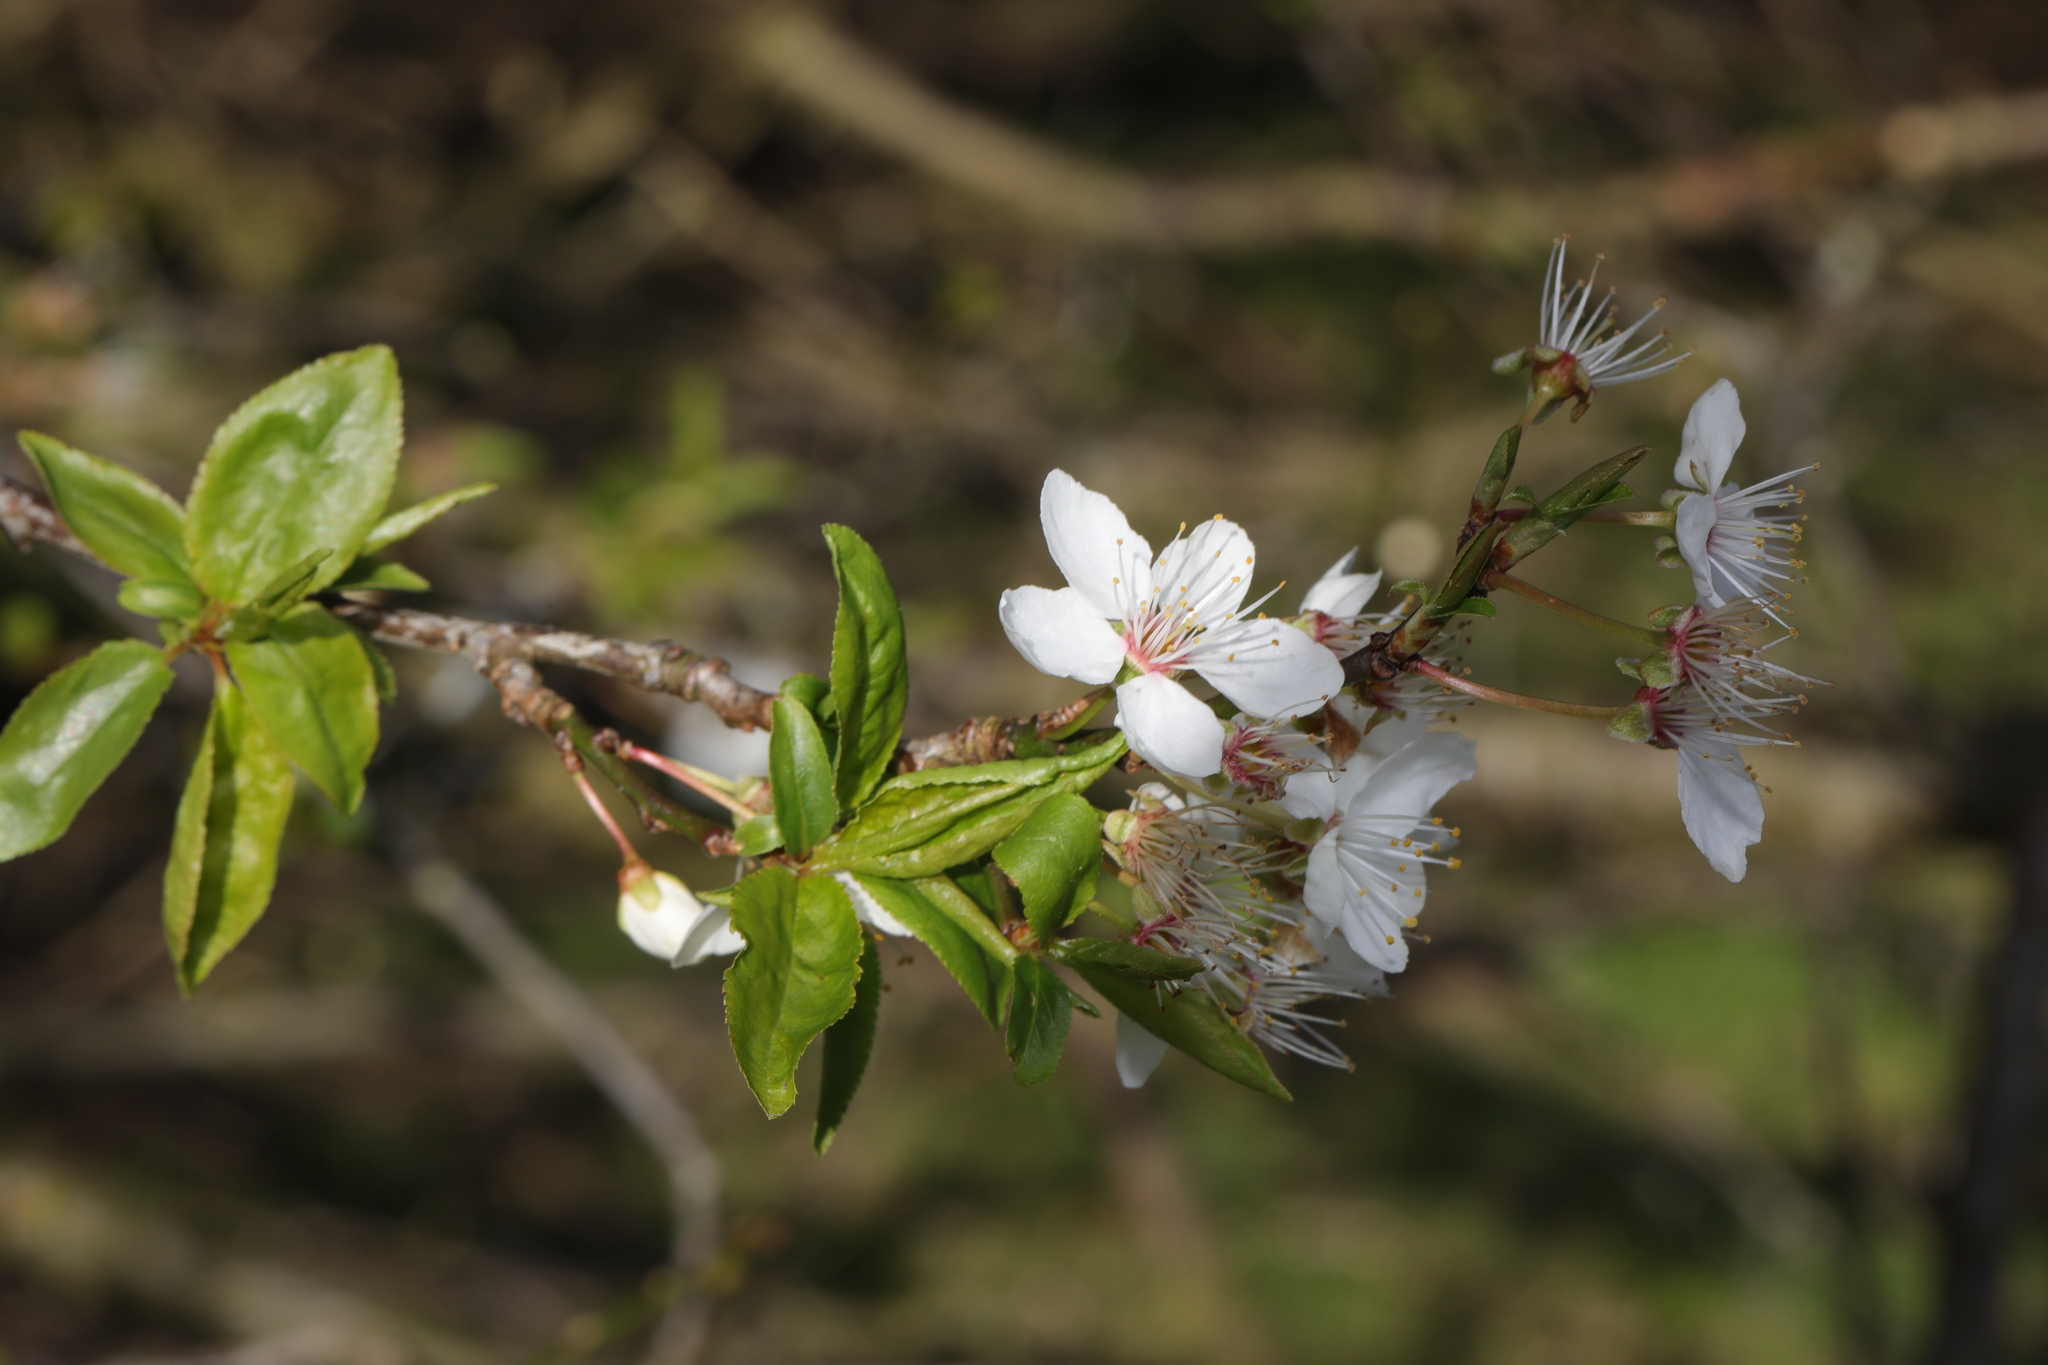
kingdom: Plantae
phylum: Tracheophyta
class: Magnoliopsida
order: Rosales
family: Rosaceae
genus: Prunus
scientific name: Prunus cerasifera
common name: Cherry plum
